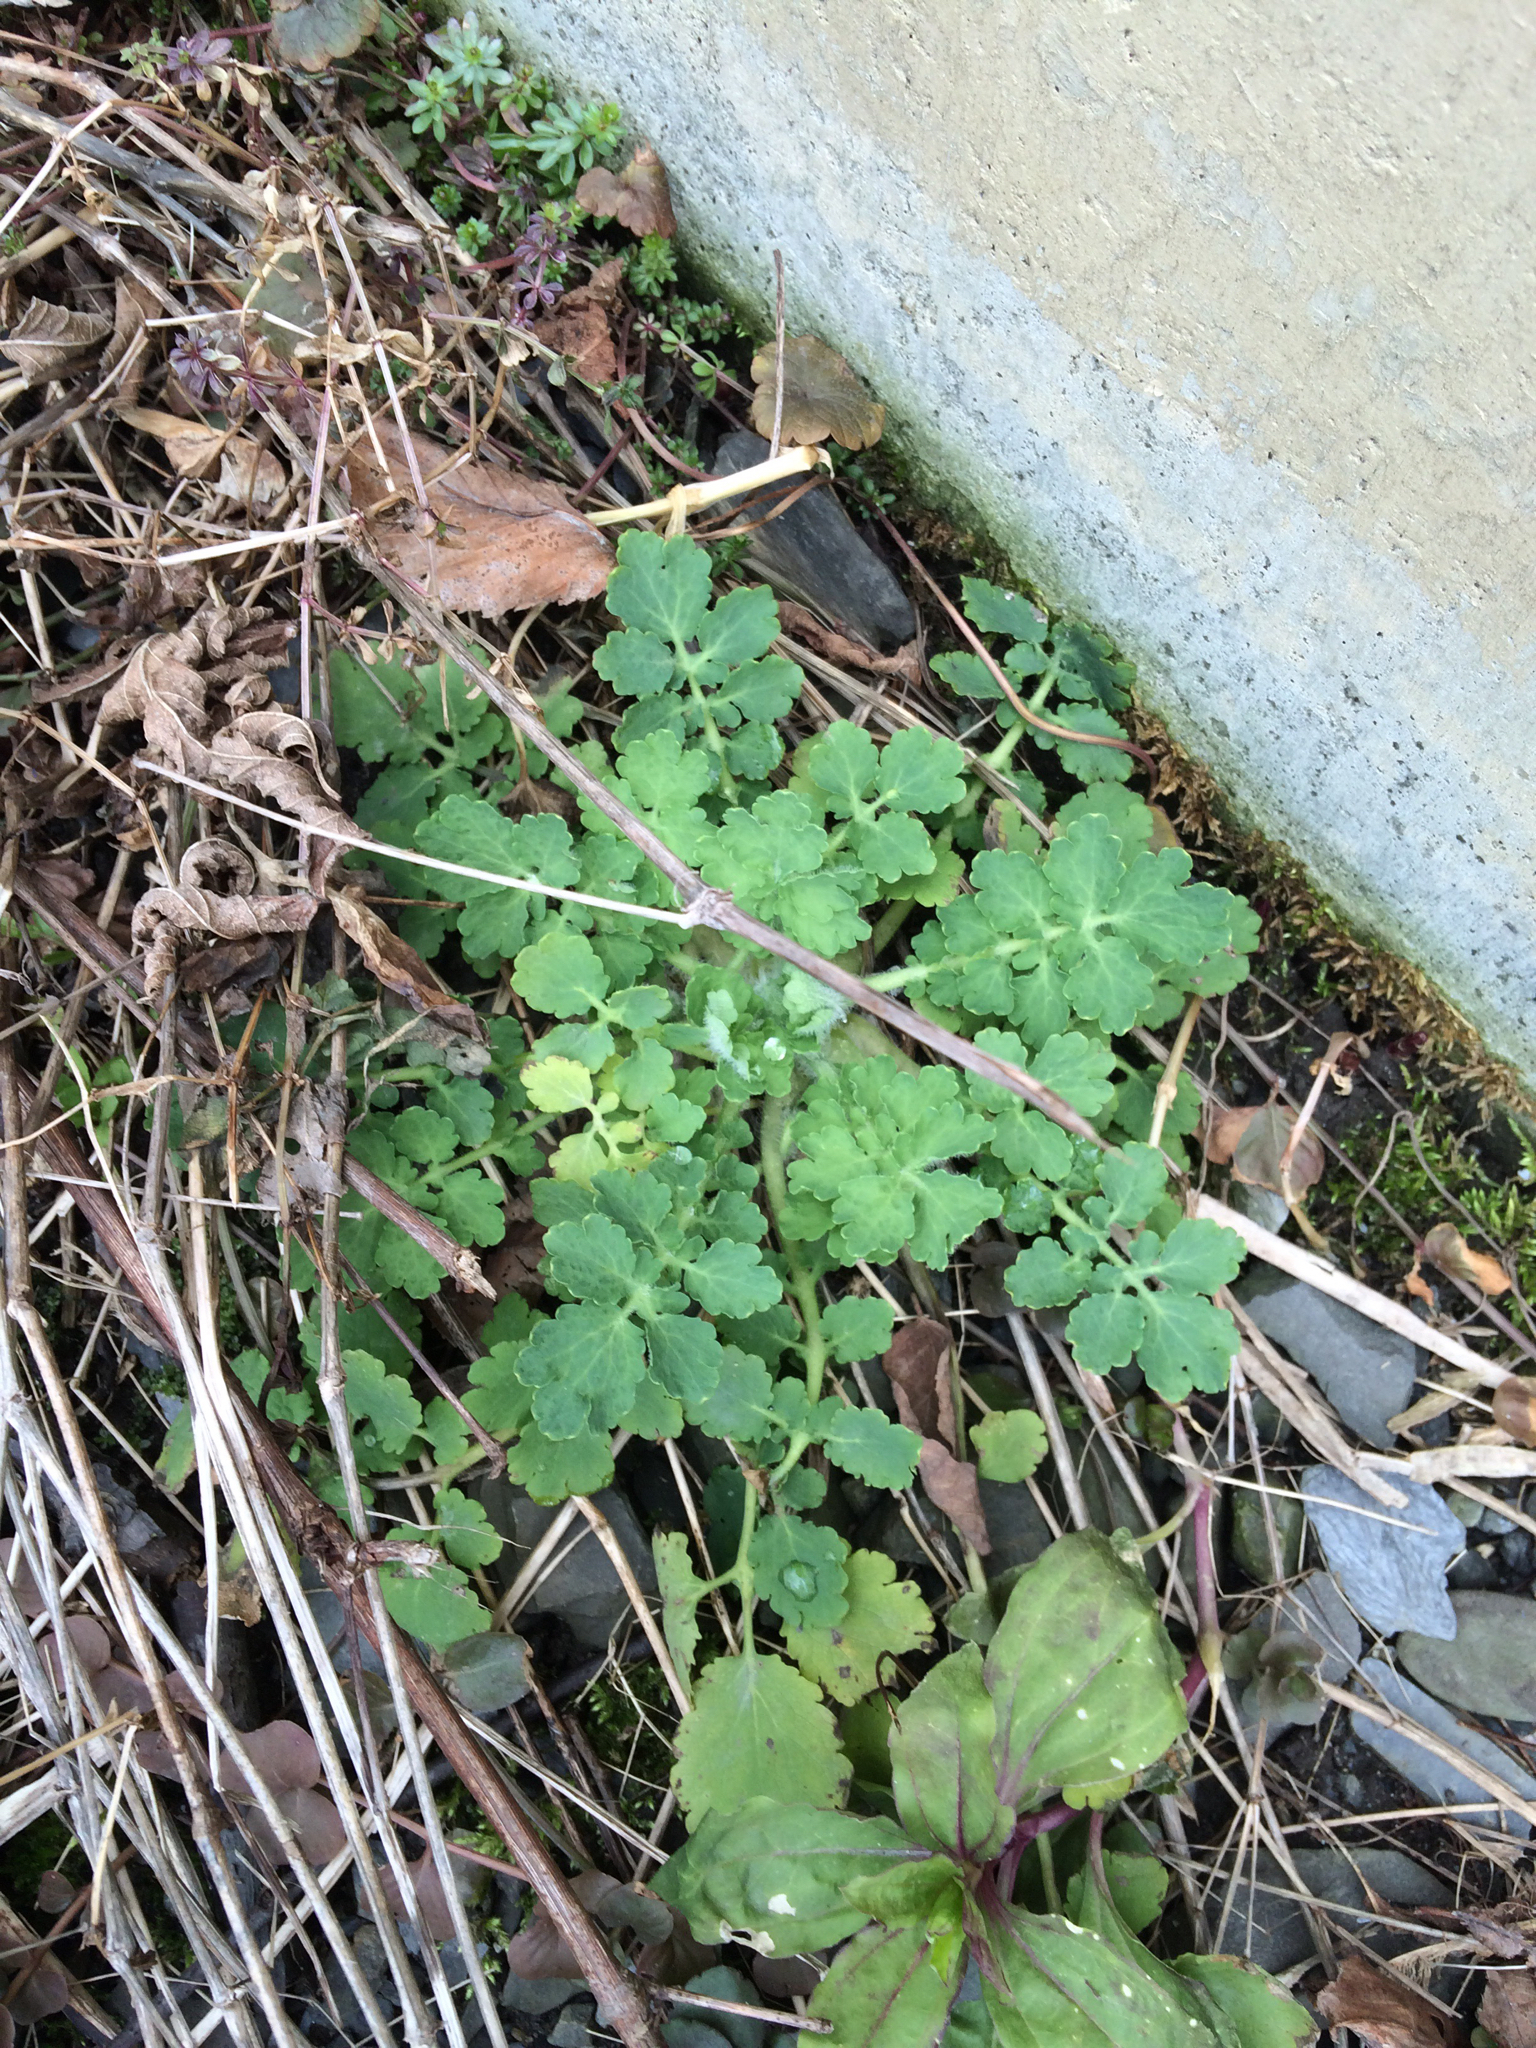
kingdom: Plantae
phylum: Tracheophyta
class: Magnoliopsida
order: Ranunculales
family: Papaveraceae
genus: Chelidonium
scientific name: Chelidonium majus
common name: Greater celandine
